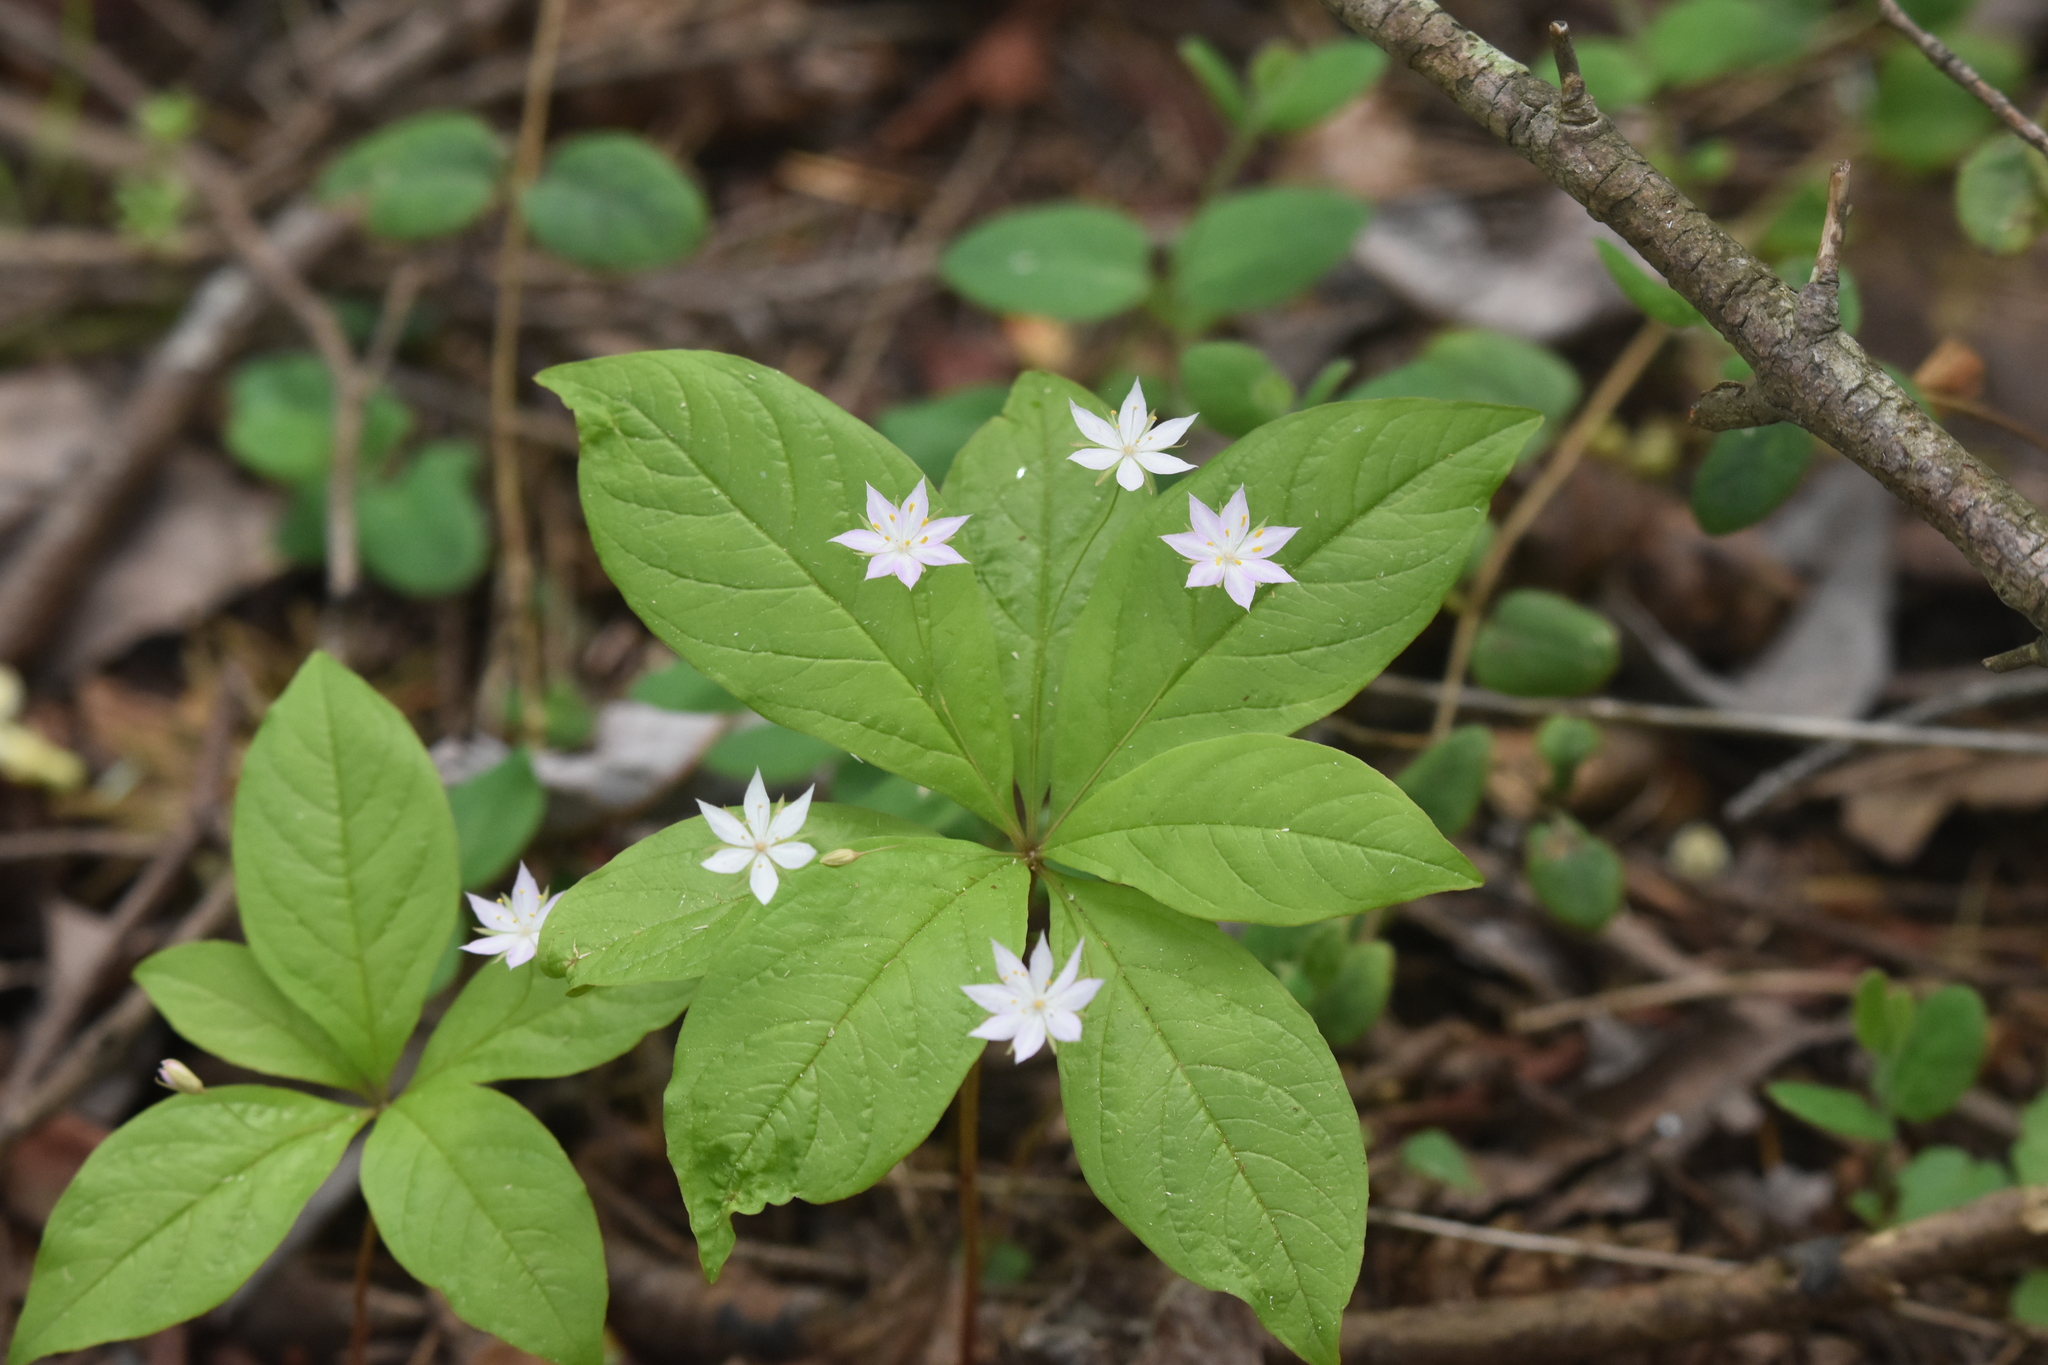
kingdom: Plantae
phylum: Tracheophyta
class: Magnoliopsida
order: Ericales
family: Primulaceae
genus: Lysimachia
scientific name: Lysimachia latifolia
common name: Pacific starflower
